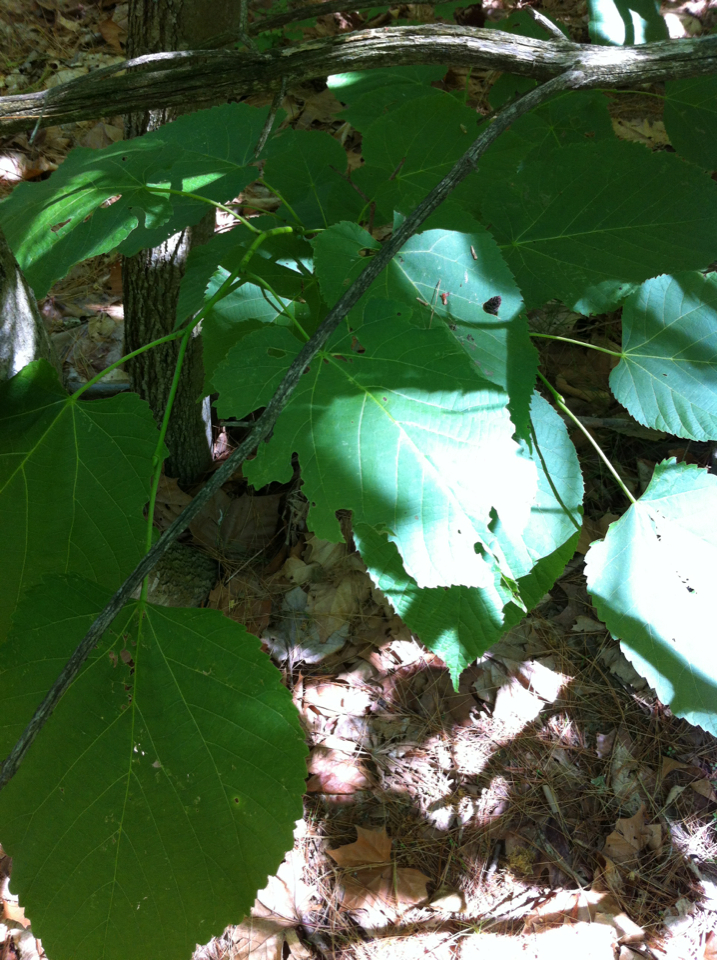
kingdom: Plantae
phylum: Tracheophyta
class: Magnoliopsida
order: Malvales
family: Malvaceae
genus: Tilia
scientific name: Tilia americana
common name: Basswood
